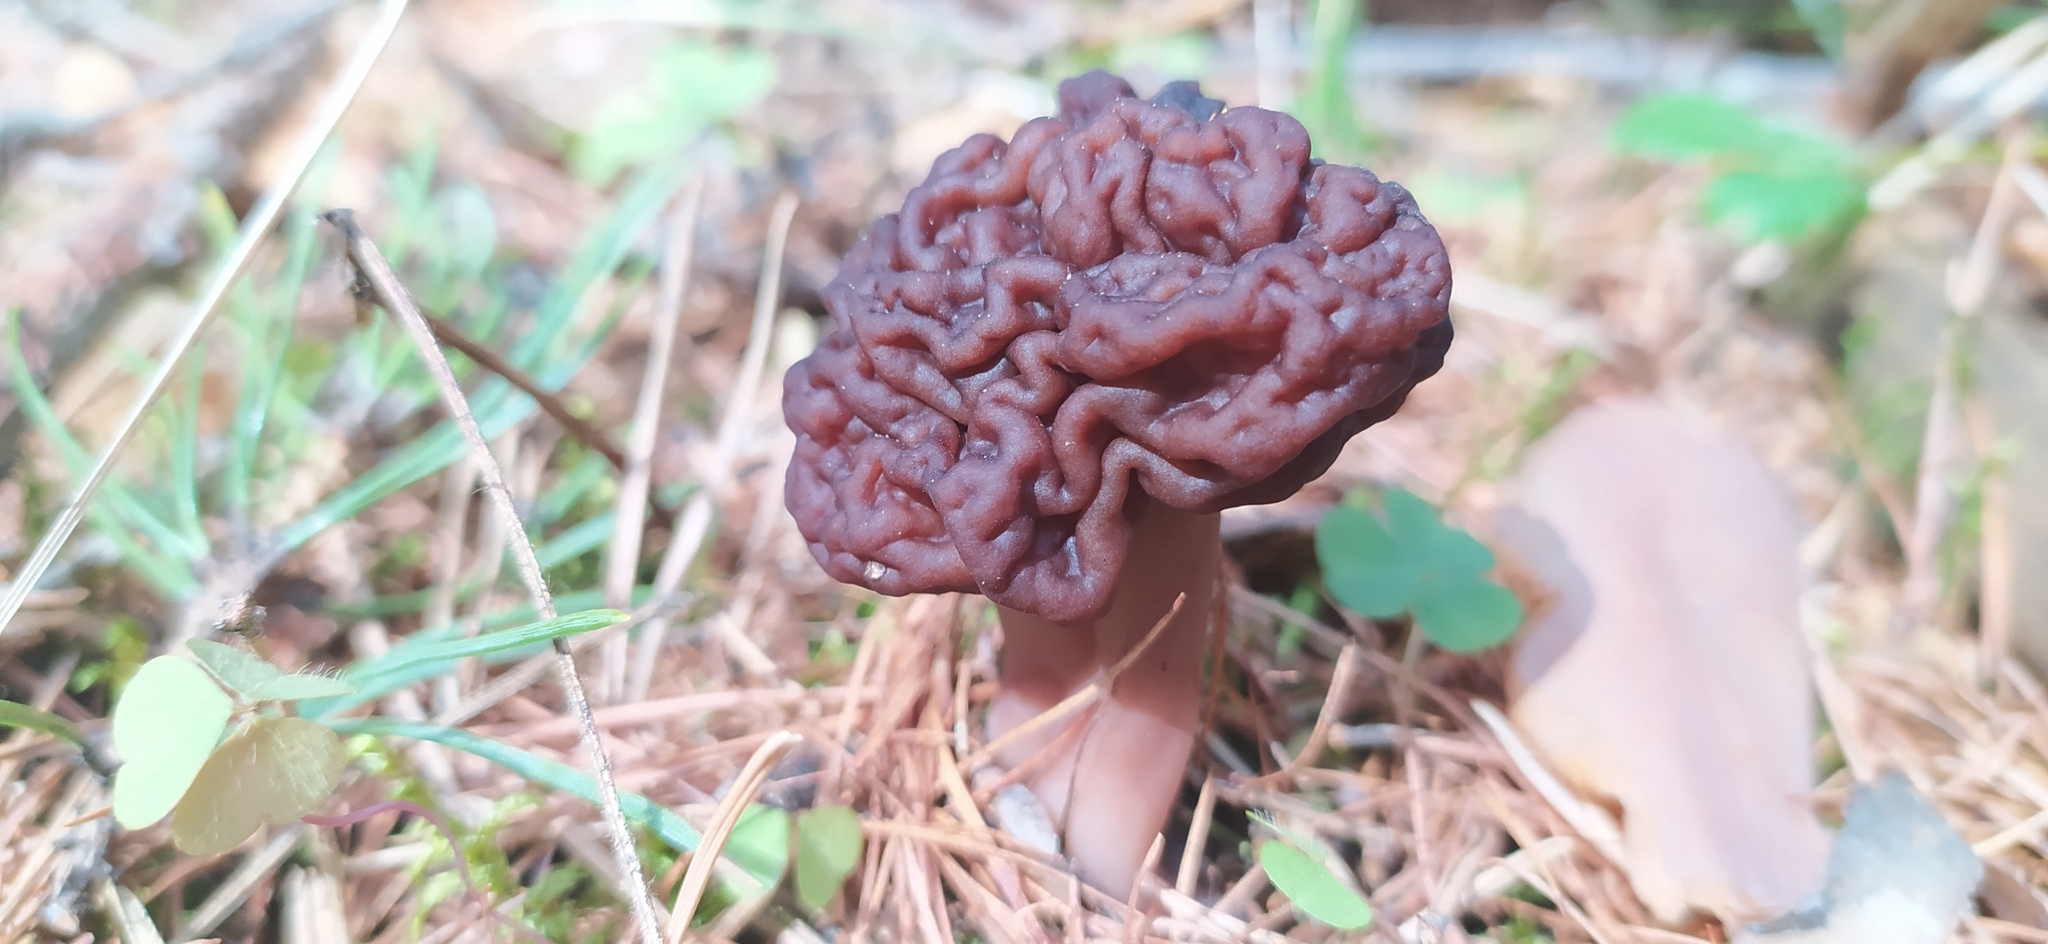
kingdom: Fungi
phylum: Ascomycota
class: Pezizomycetes
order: Pezizales
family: Discinaceae
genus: Gyromitra
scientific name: Gyromitra esculenta
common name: False morel
